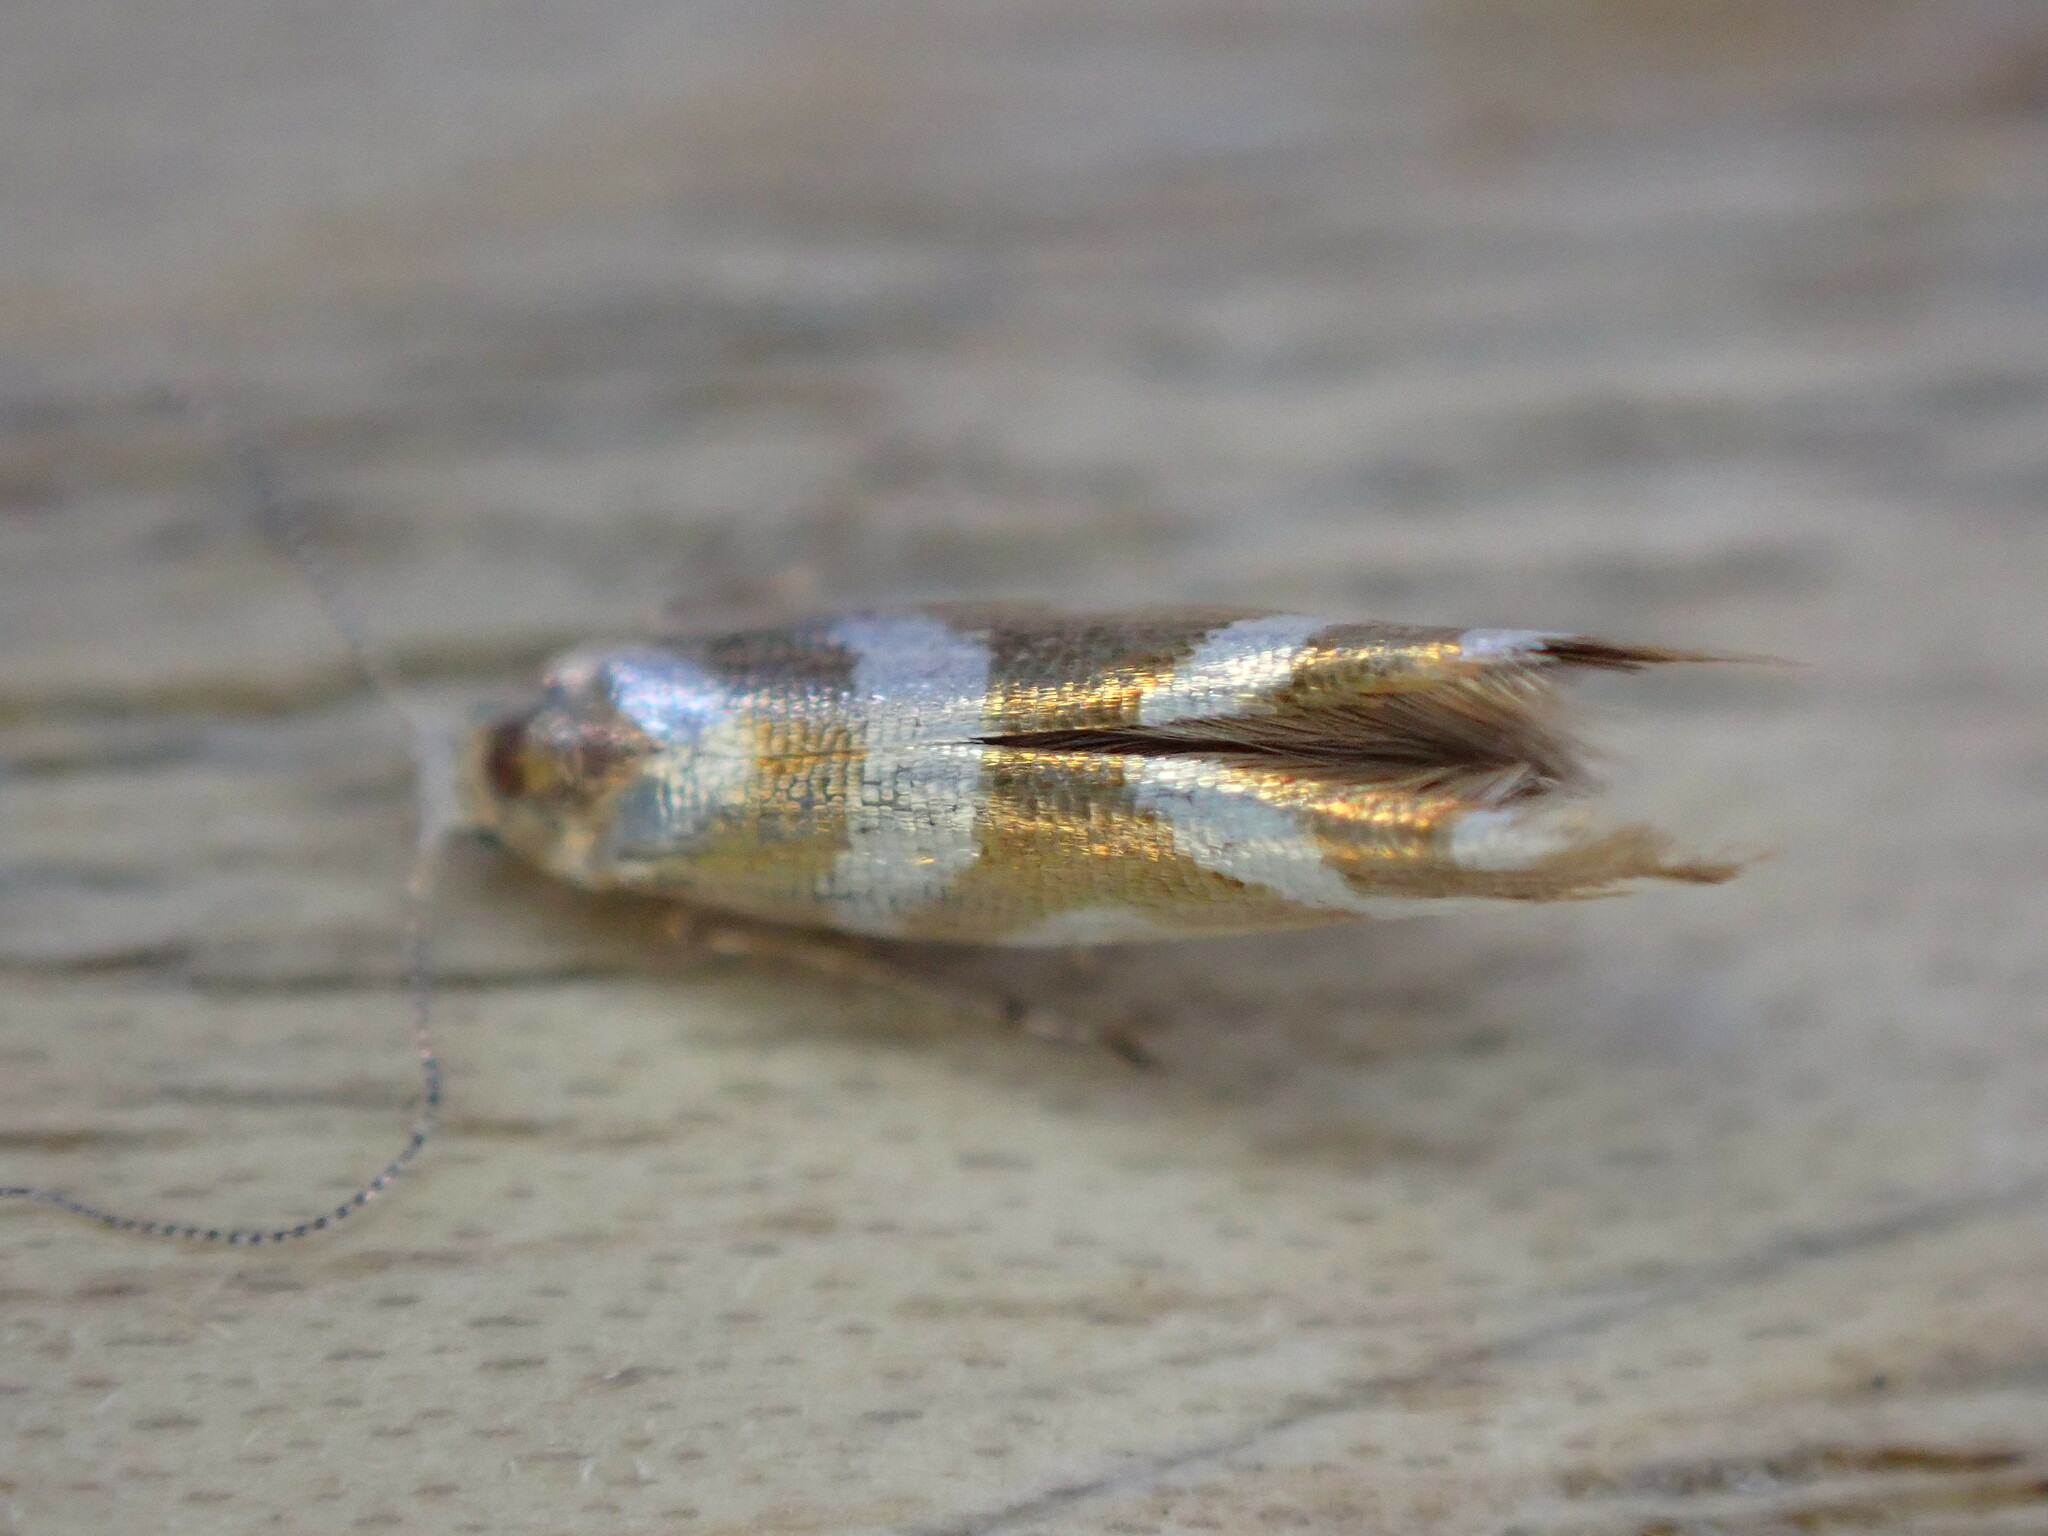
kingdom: Animalia
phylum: Arthropoda
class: Insecta
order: Lepidoptera
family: Argyresthiidae
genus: Argyresthia
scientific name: Argyresthia goedartella
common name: Golden argent
